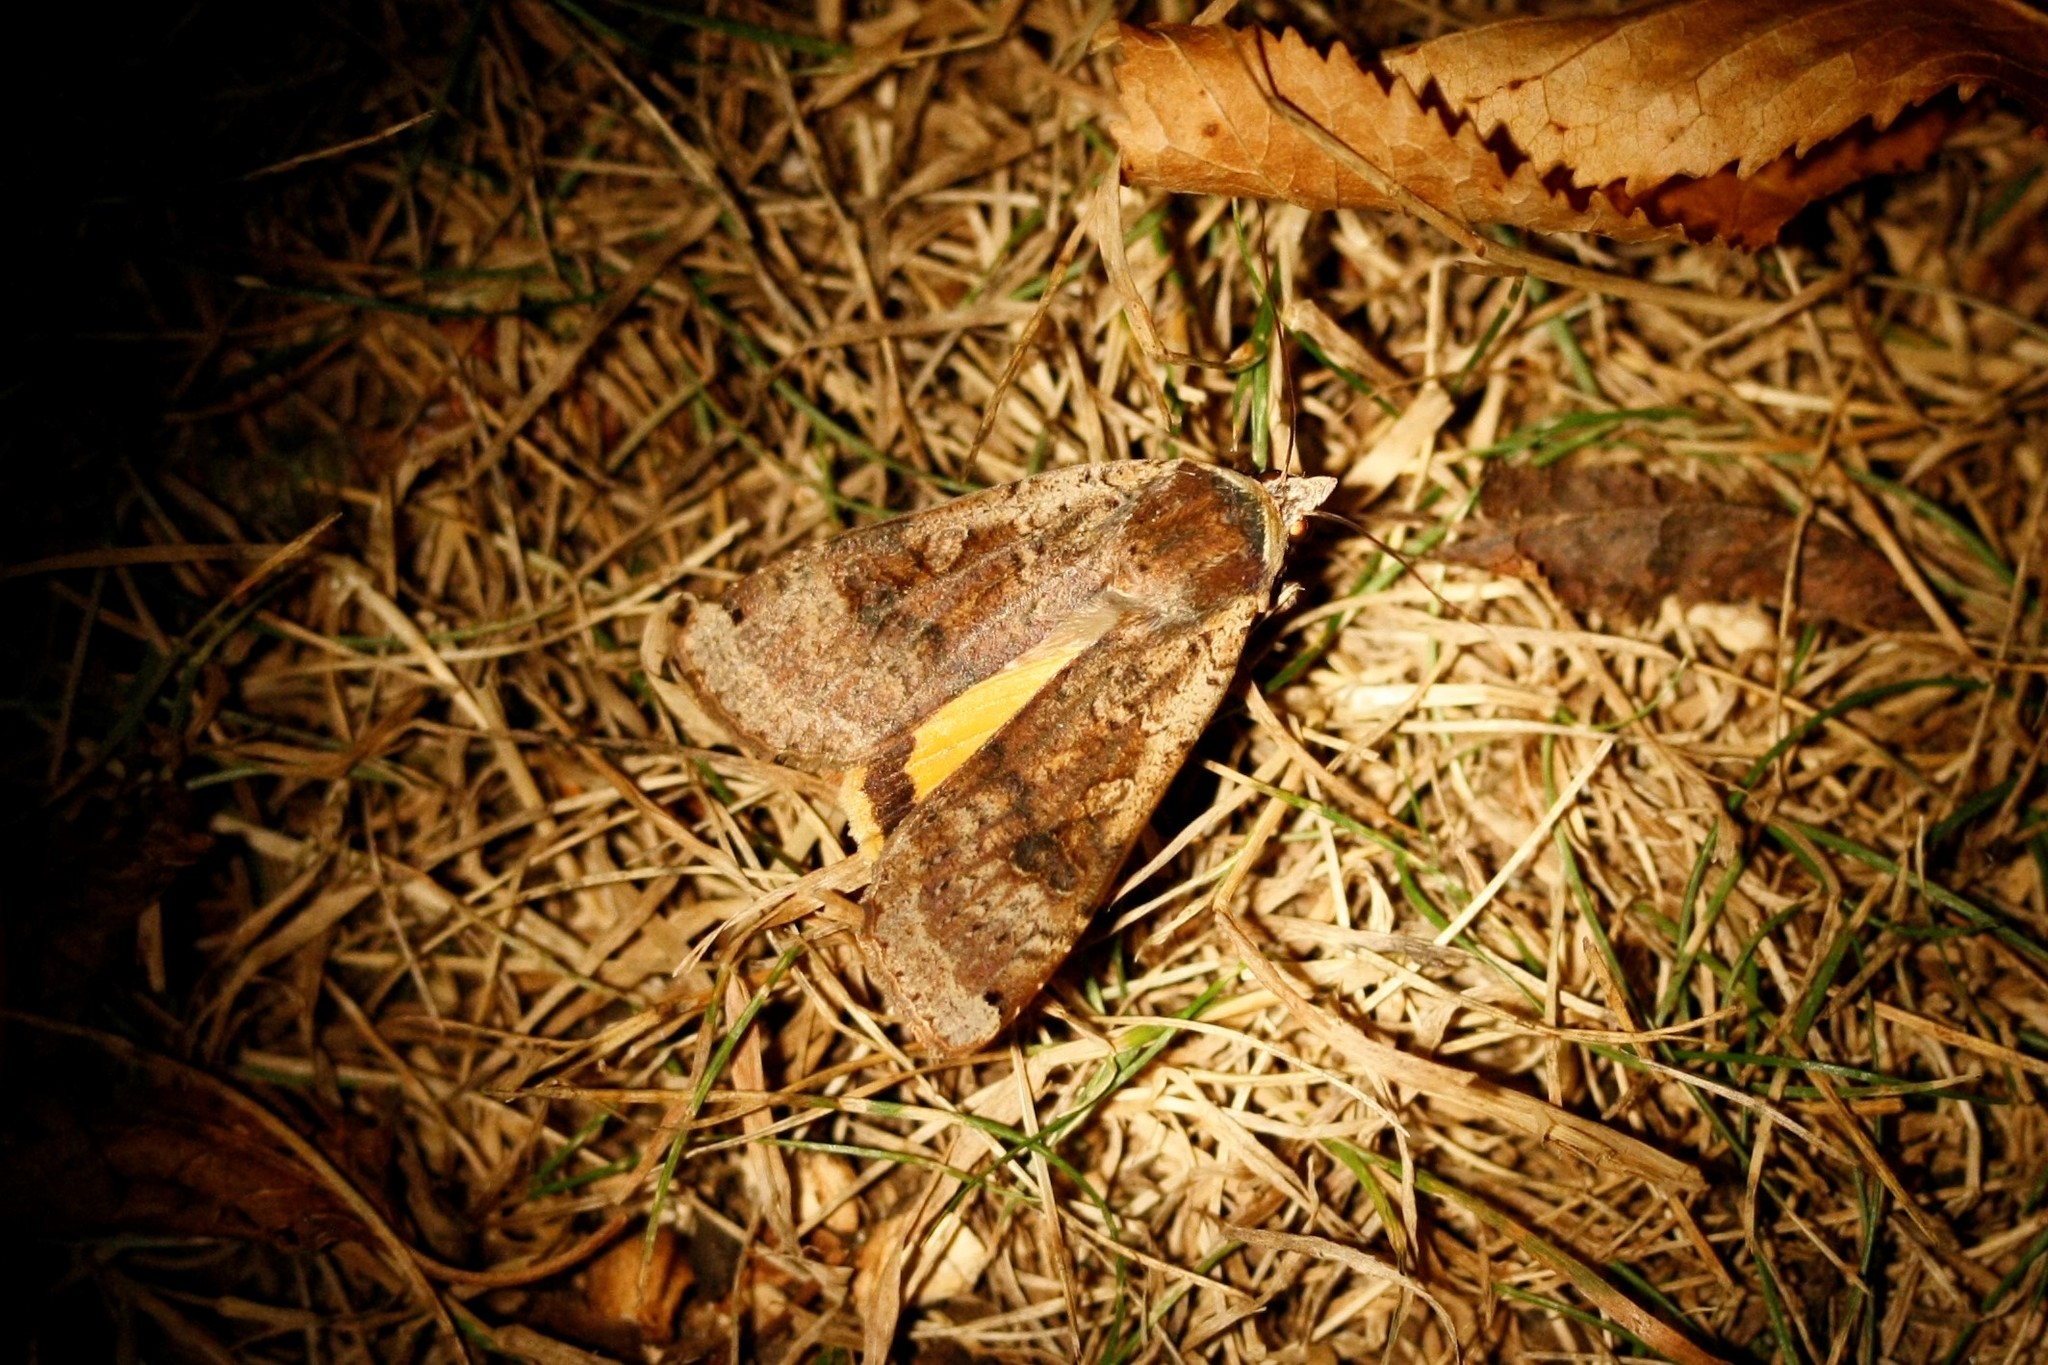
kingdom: Animalia
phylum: Arthropoda
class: Insecta
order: Lepidoptera
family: Noctuidae
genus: Noctua
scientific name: Noctua pronuba
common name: Large yellow underwing
